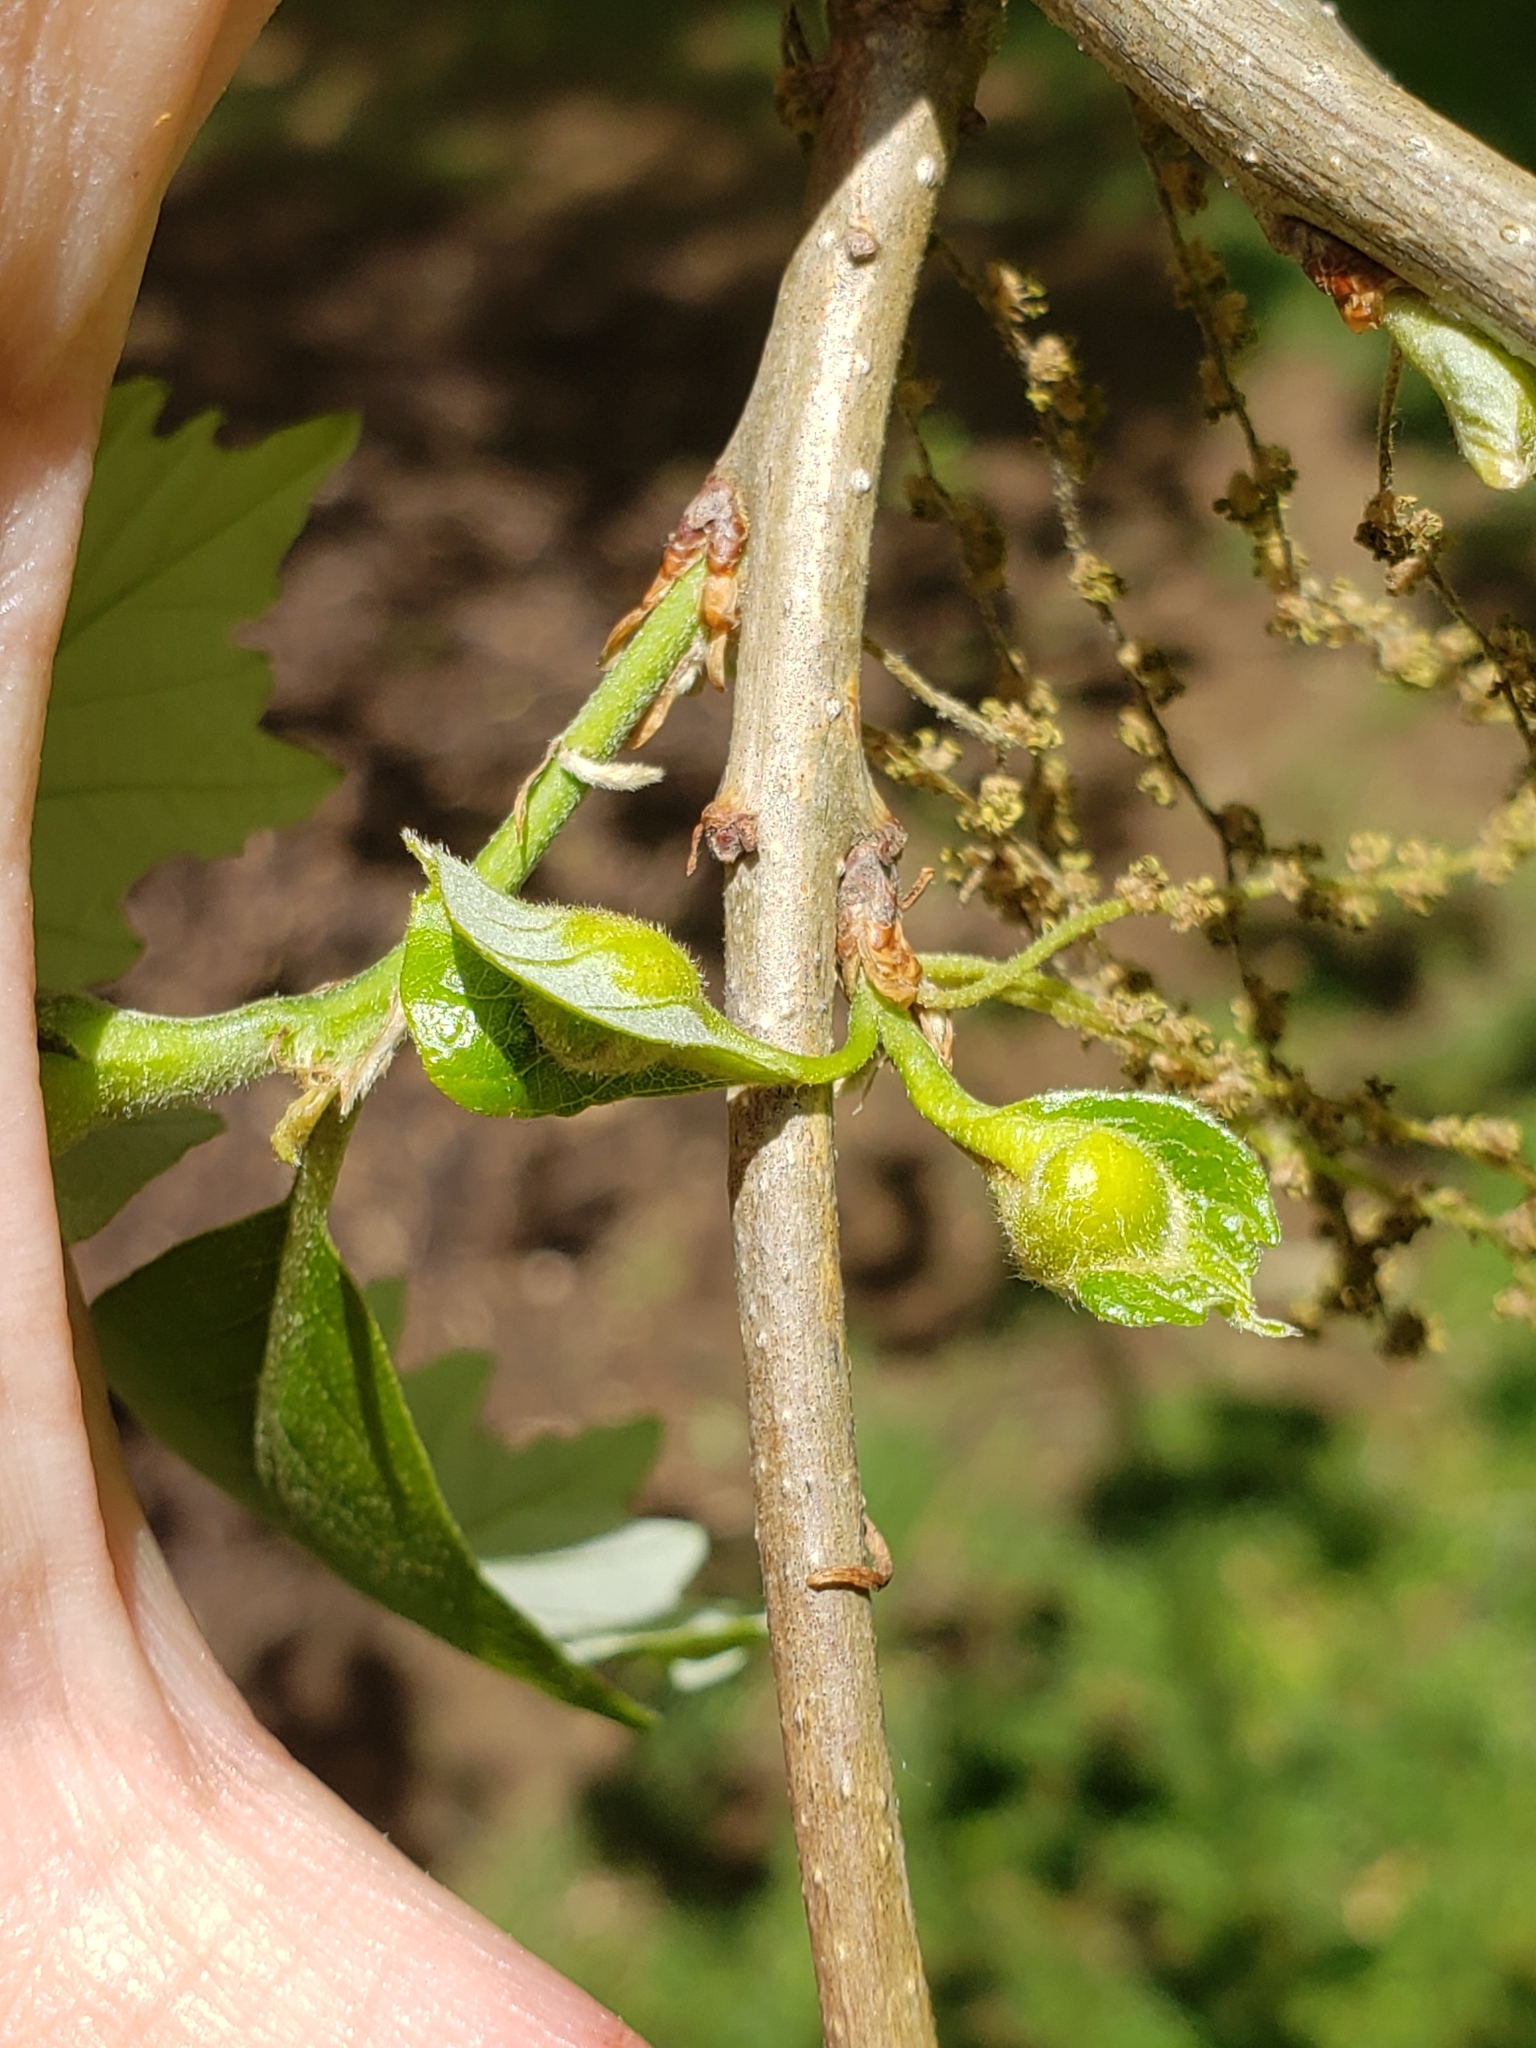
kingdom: Animalia
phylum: Arthropoda
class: Insecta
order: Hymenoptera
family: Cynipidae
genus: Andricus
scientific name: Andricus
